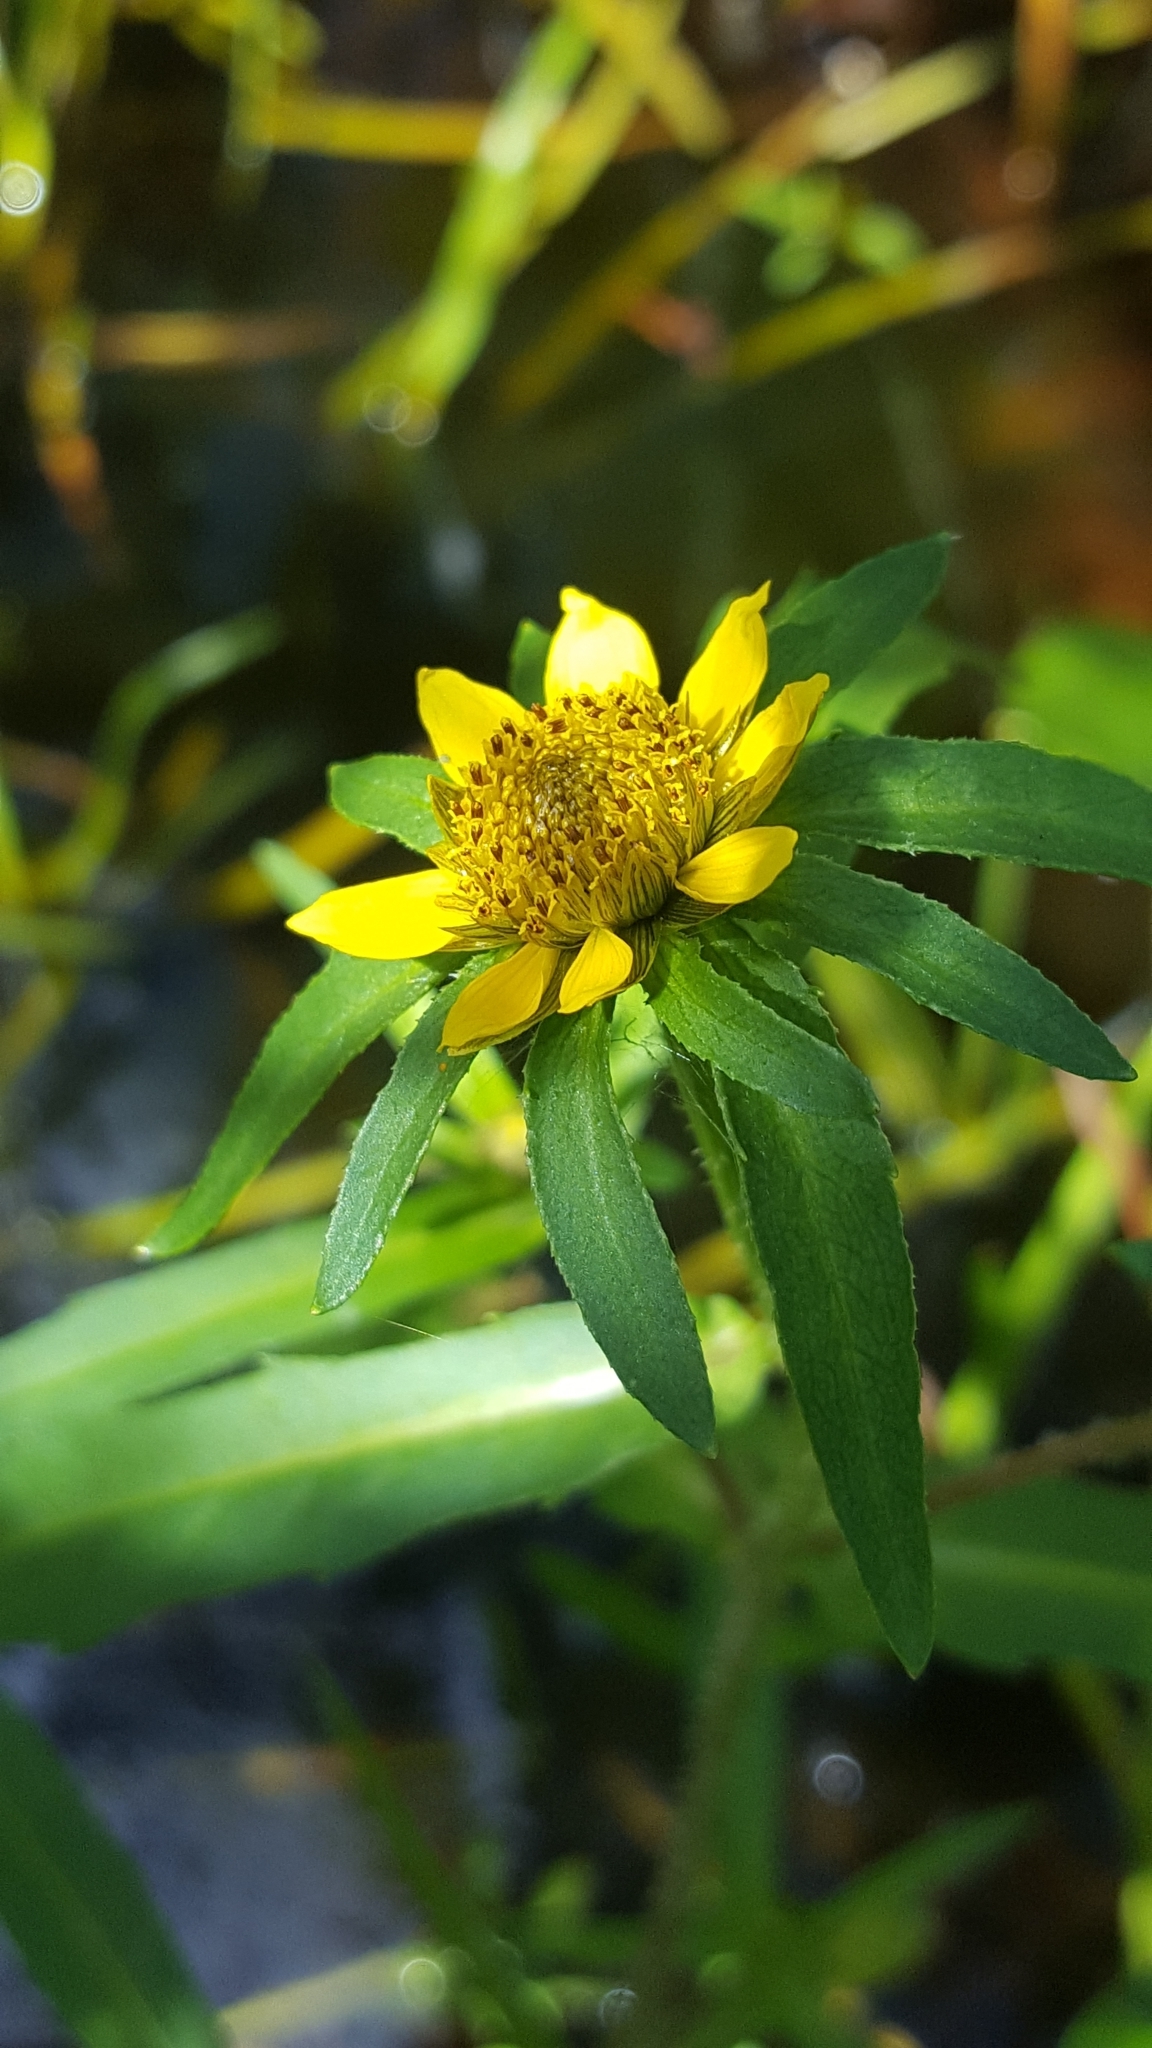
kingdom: Plantae
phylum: Tracheophyta
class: Magnoliopsida
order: Asterales
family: Asteraceae
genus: Bidens
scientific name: Bidens cernua
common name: Nodding bur-marigold
